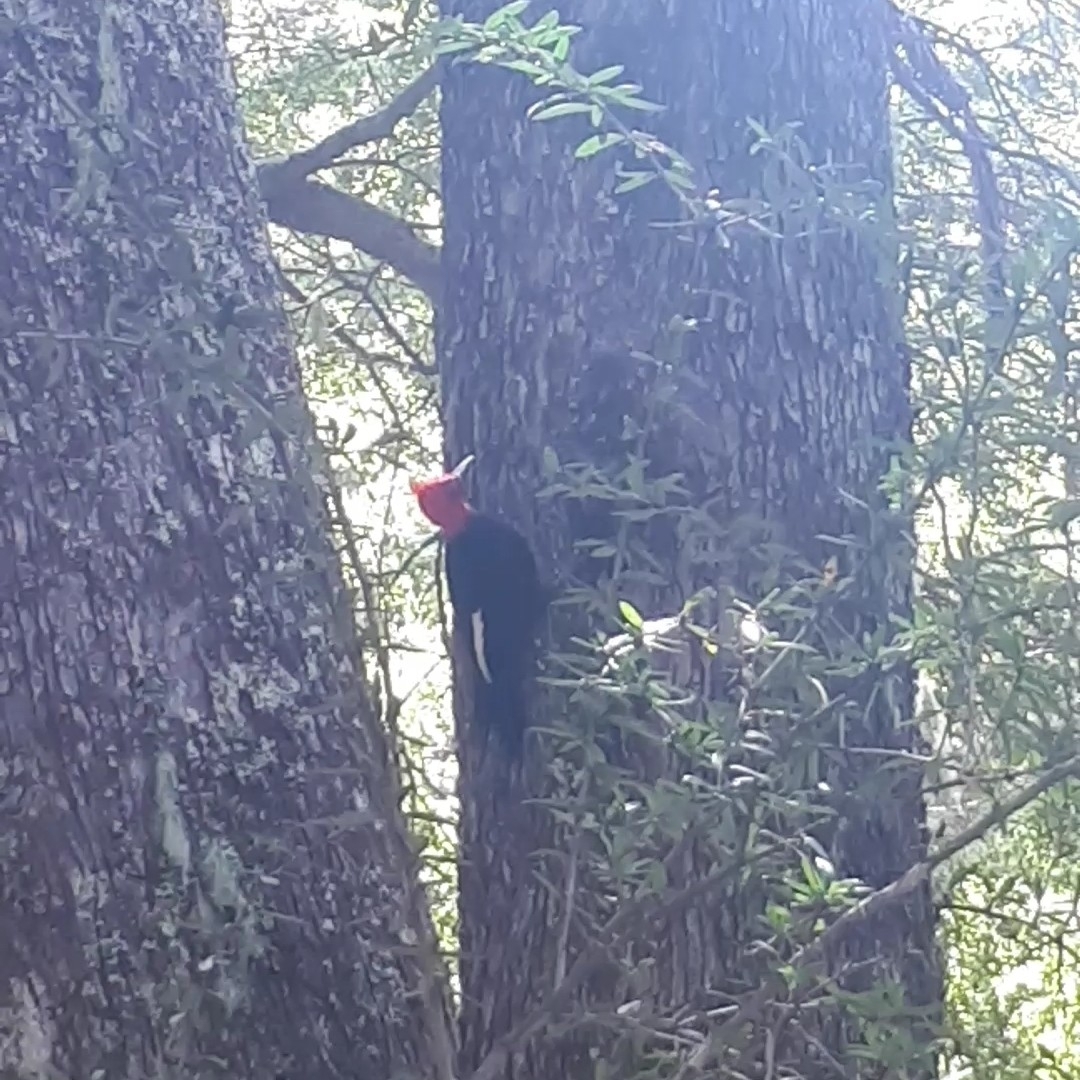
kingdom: Animalia
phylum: Chordata
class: Aves
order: Piciformes
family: Picidae
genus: Campephilus
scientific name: Campephilus magellanicus
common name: Magellanic woodpecker
